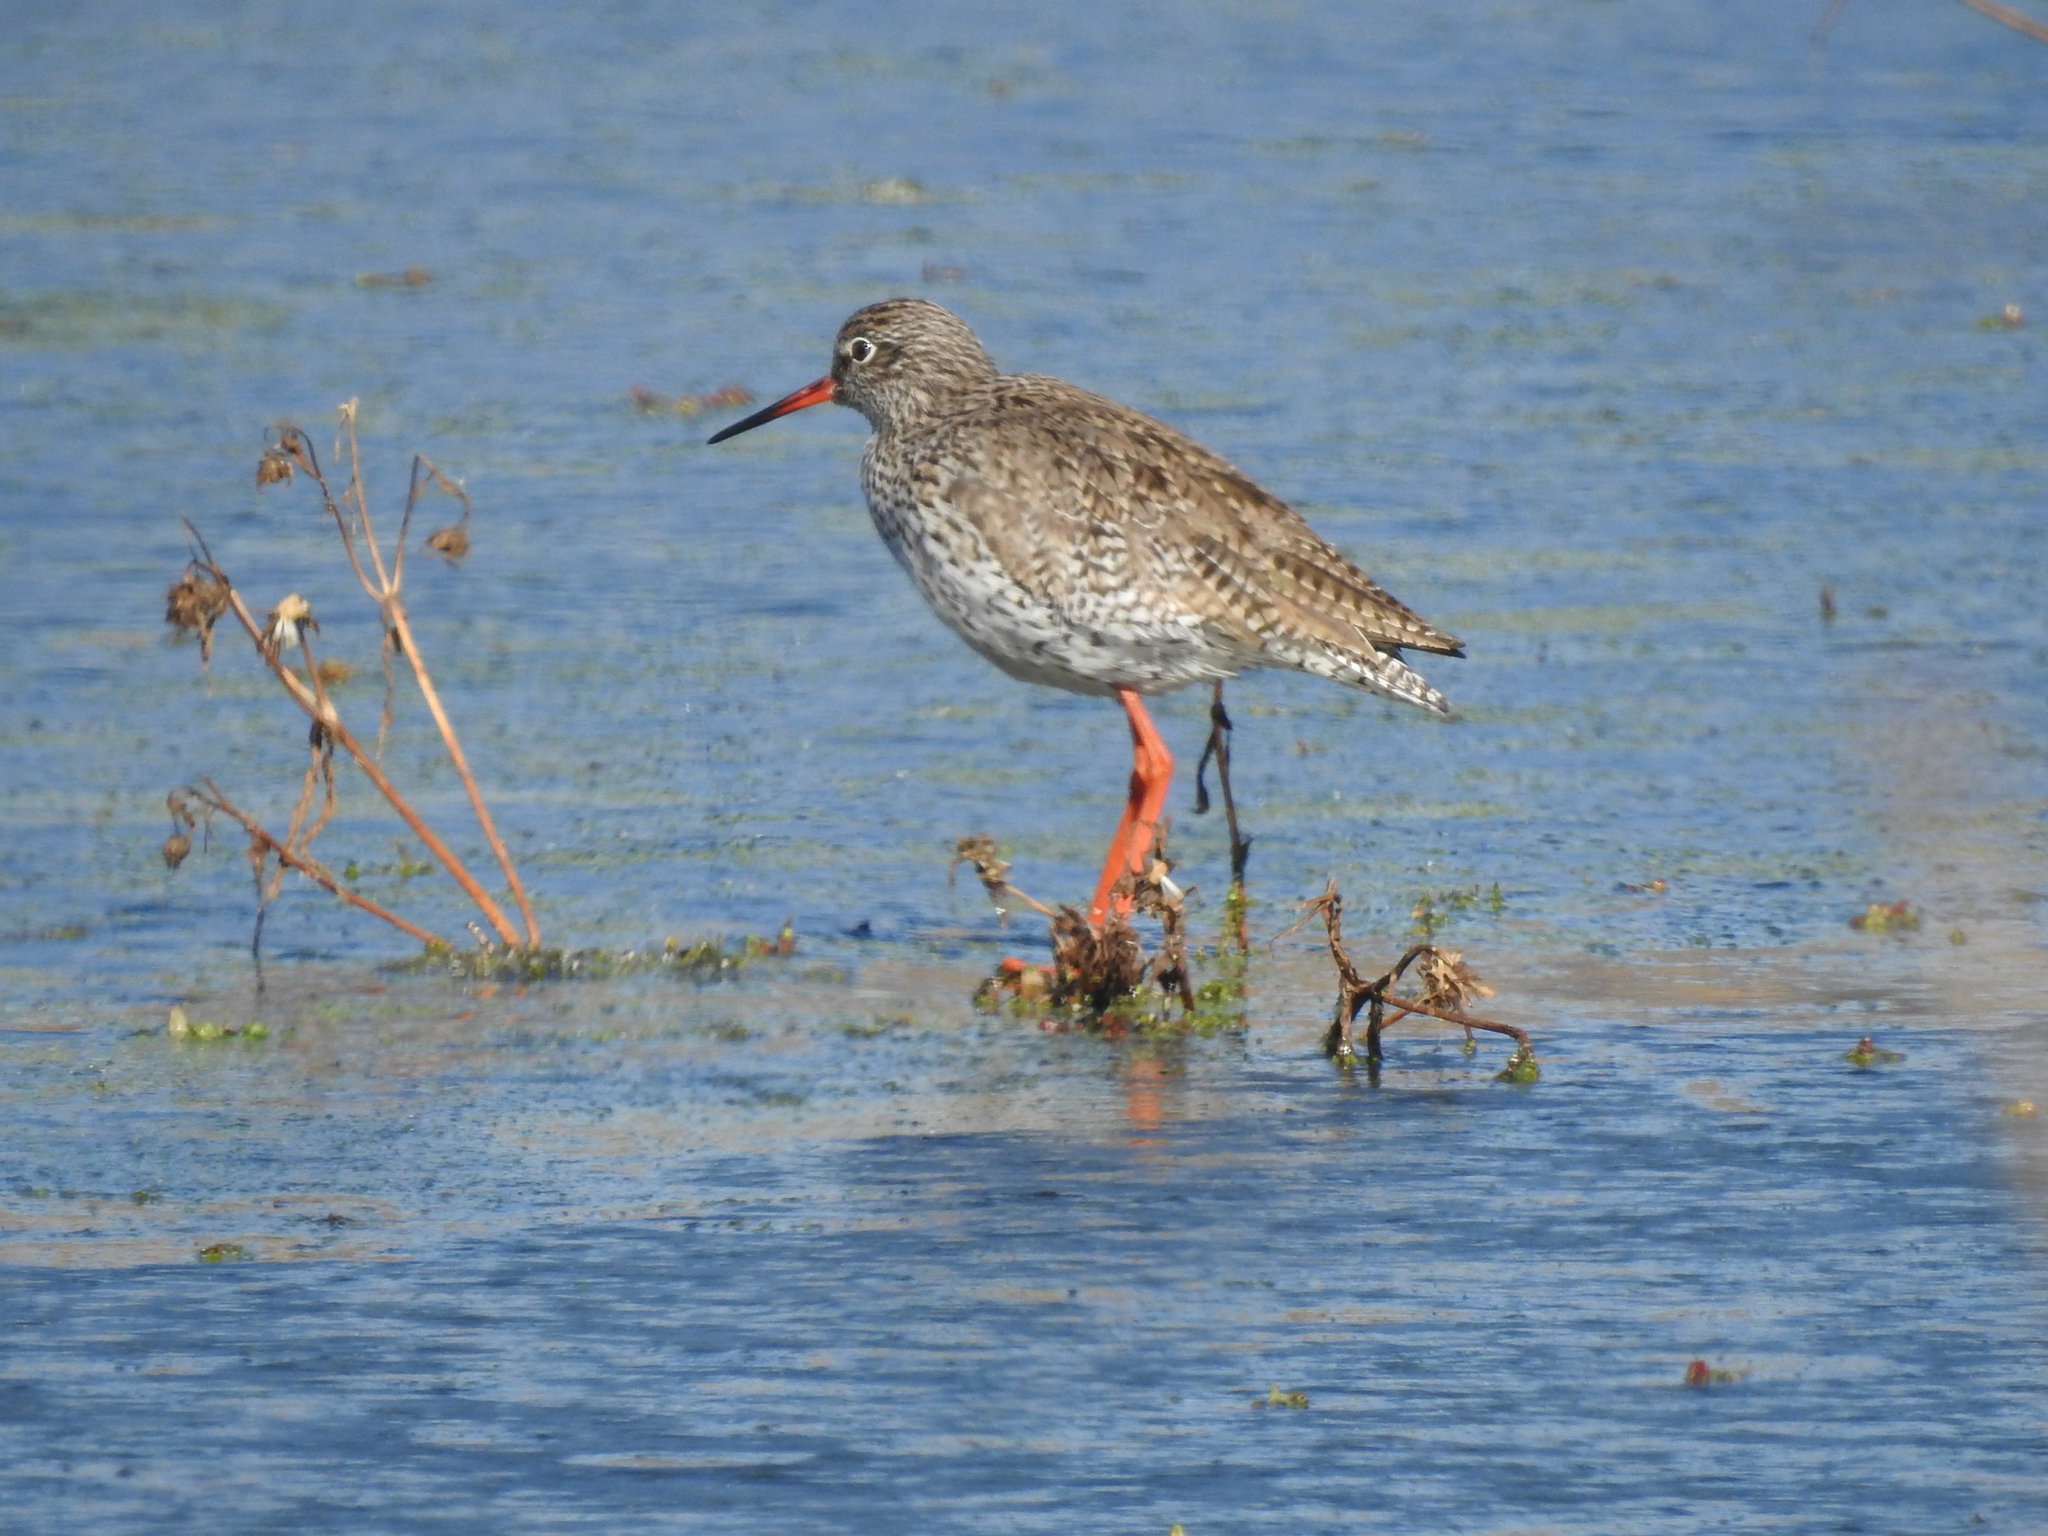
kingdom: Animalia
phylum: Chordata
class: Aves
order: Charadriiformes
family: Scolopacidae
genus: Tringa
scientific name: Tringa totanus
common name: Common redshank
